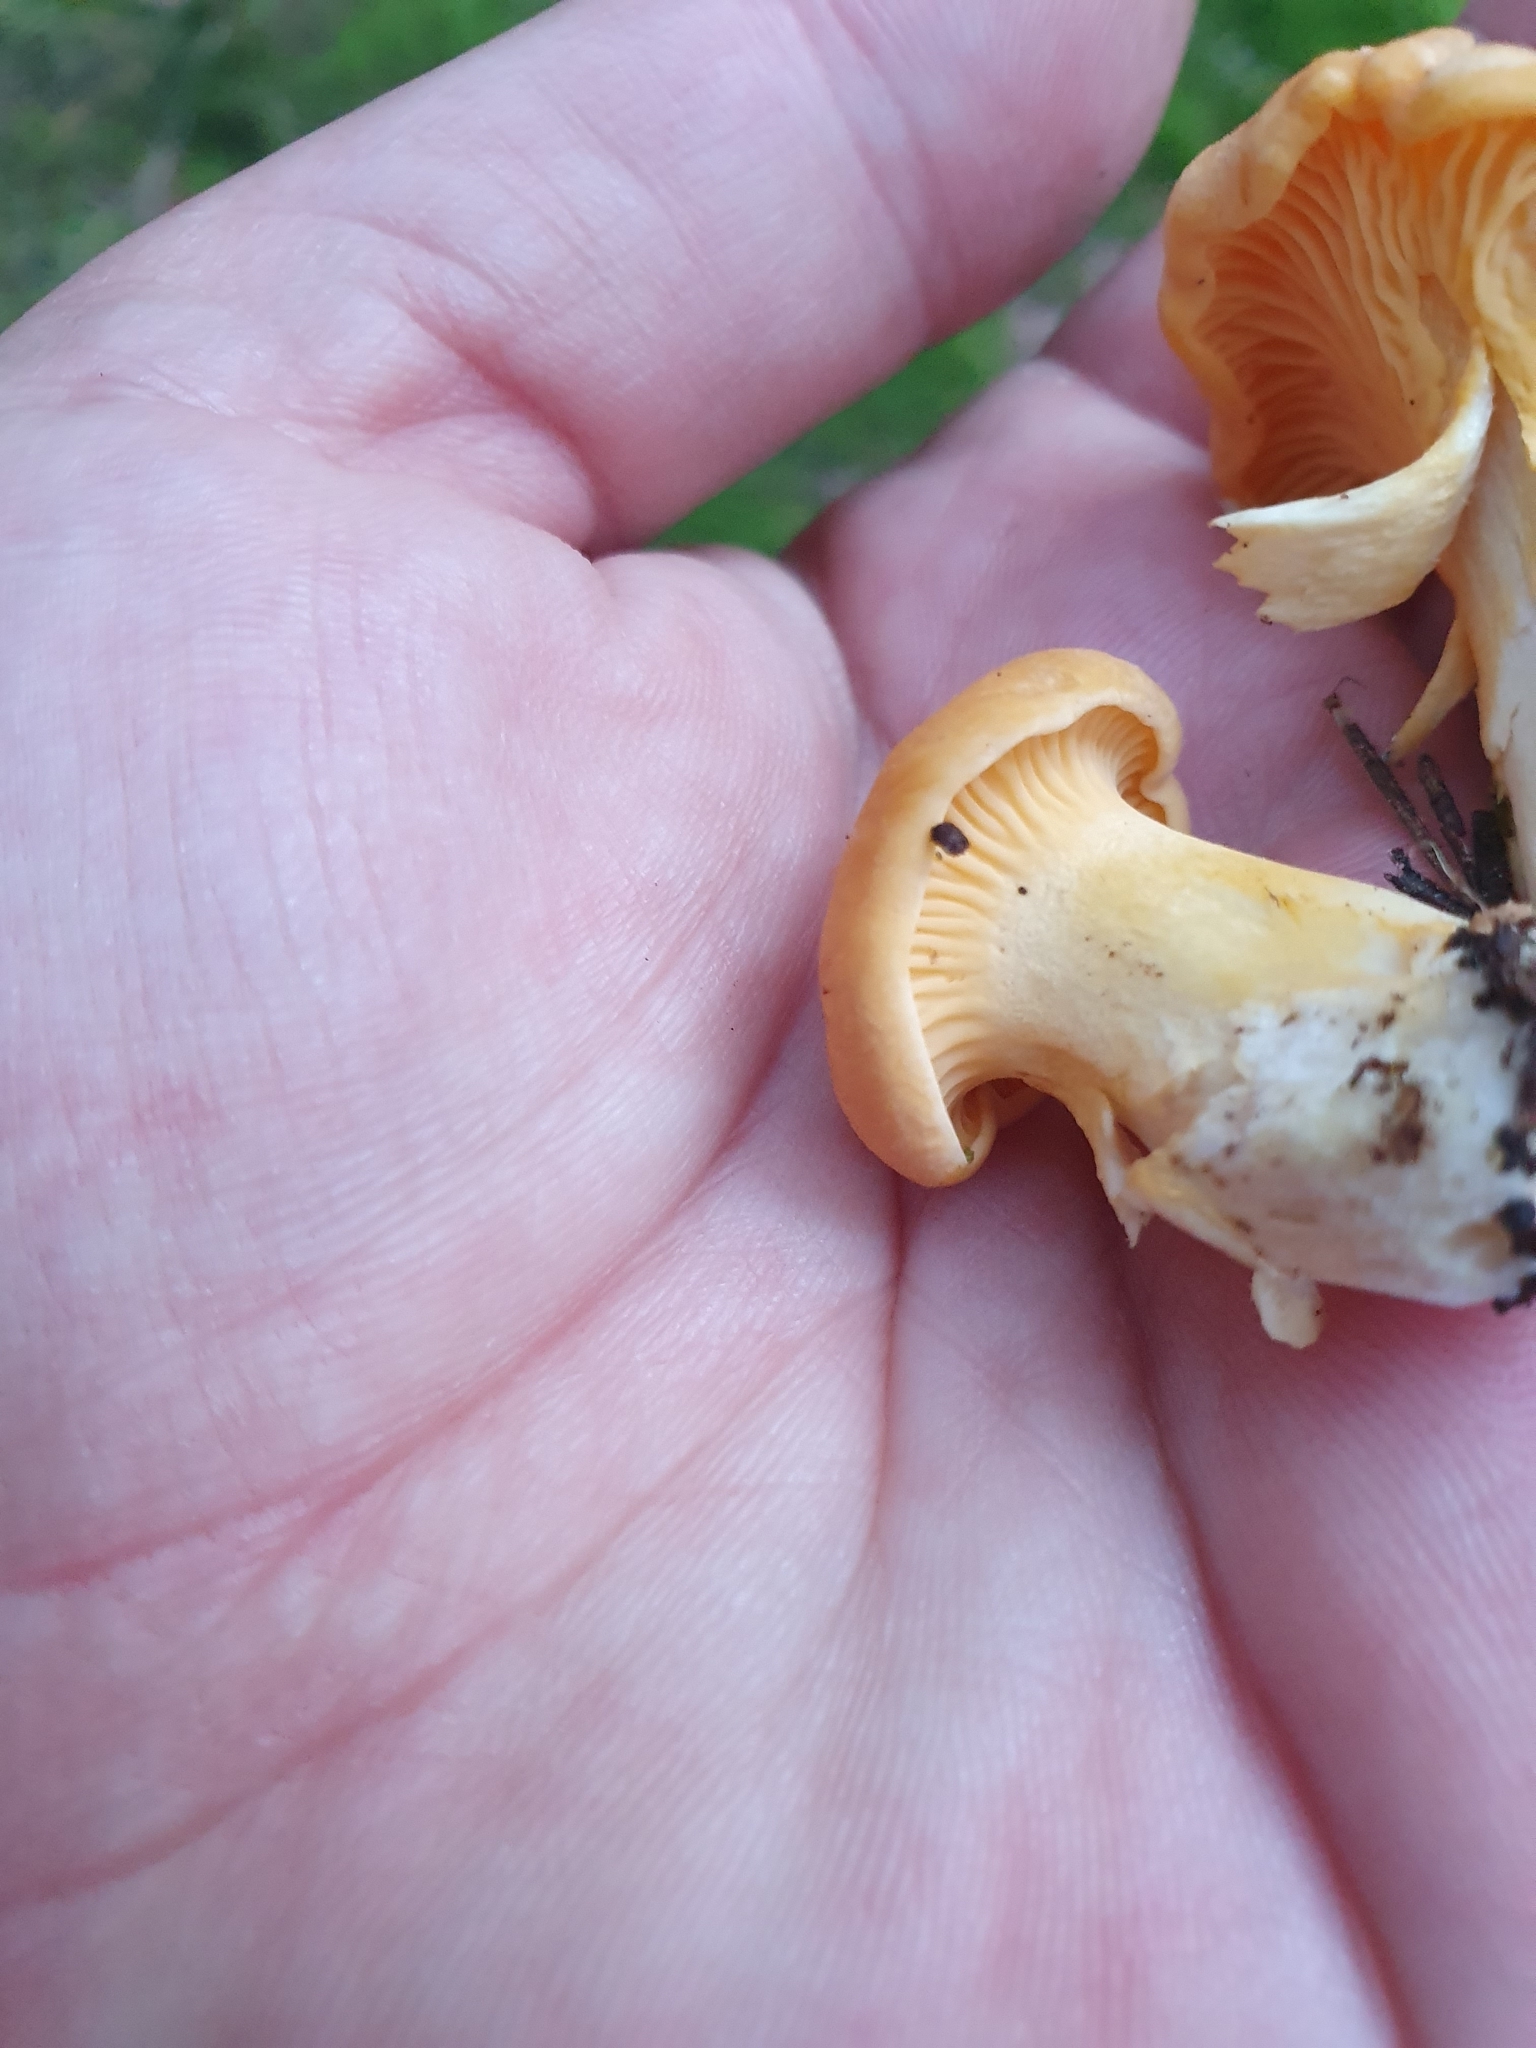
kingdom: Fungi
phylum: Basidiomycota
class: Agaricomycetes
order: Cantharellales
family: Hydnaceae
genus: Cantharellus
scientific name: Cantharellus cibarius
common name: Chanterelle
